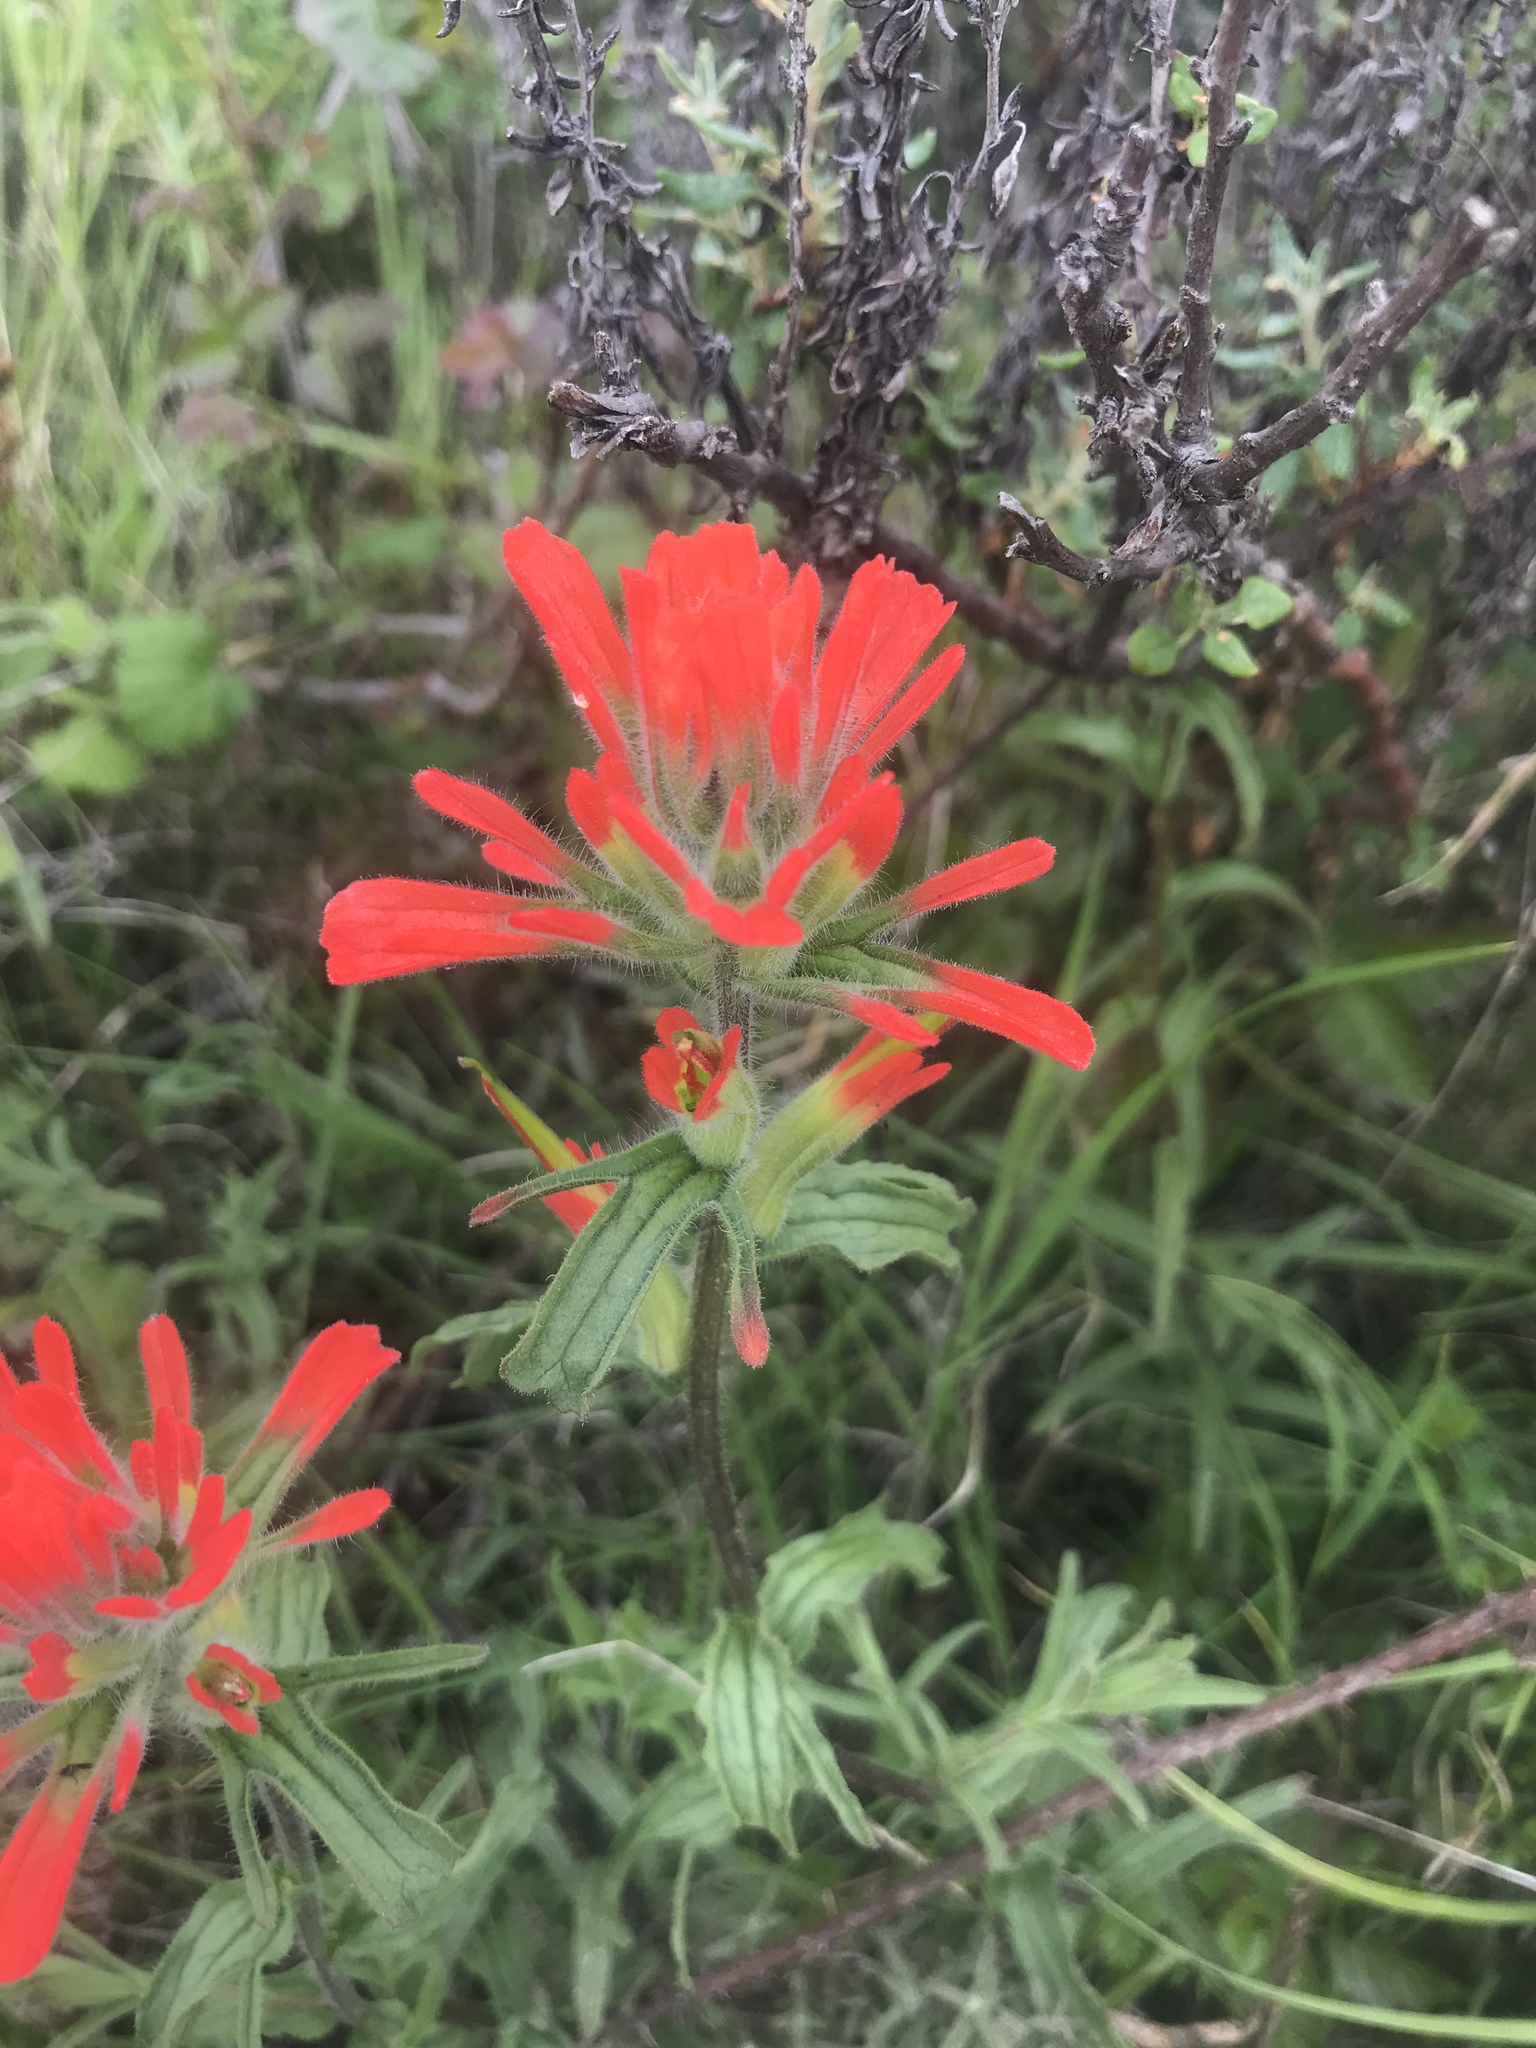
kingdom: Plantae
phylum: Tracheophyta
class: Magnoliopsida
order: Lamiales
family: Orobanchaceae
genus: Castilleja
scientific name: Castilleja affinis
